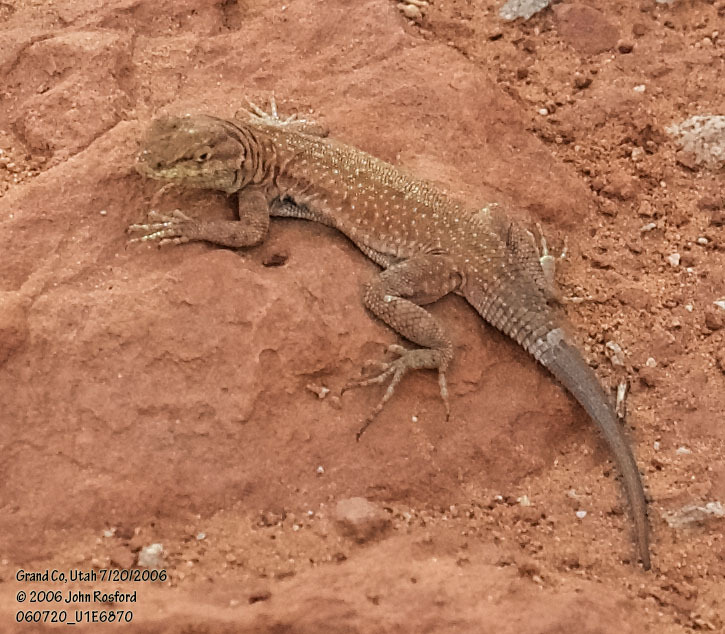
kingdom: Animalia
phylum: Chordata
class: Squamata
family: Phrynosomatidae
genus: Uta
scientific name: Uta stansburiana
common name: Side-blotched lizard
